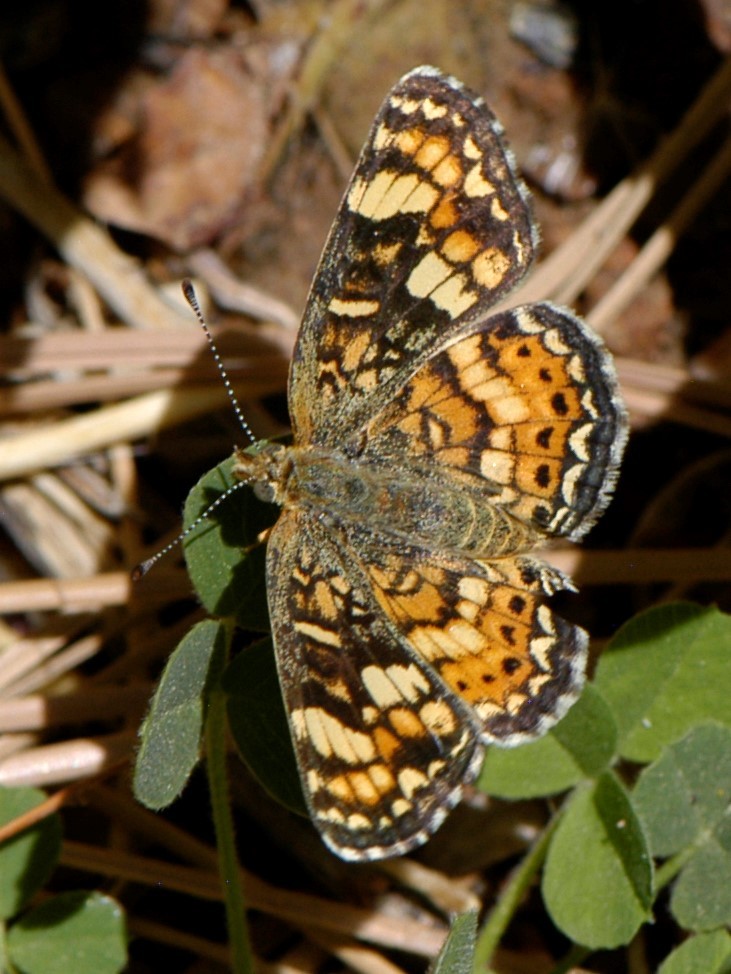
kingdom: Animalia
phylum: Arthropoda
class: Insecta
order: Lepidoptera
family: Nymphalidae
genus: Phyciodes
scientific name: Phyciodes tharos
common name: Pearl crescent
